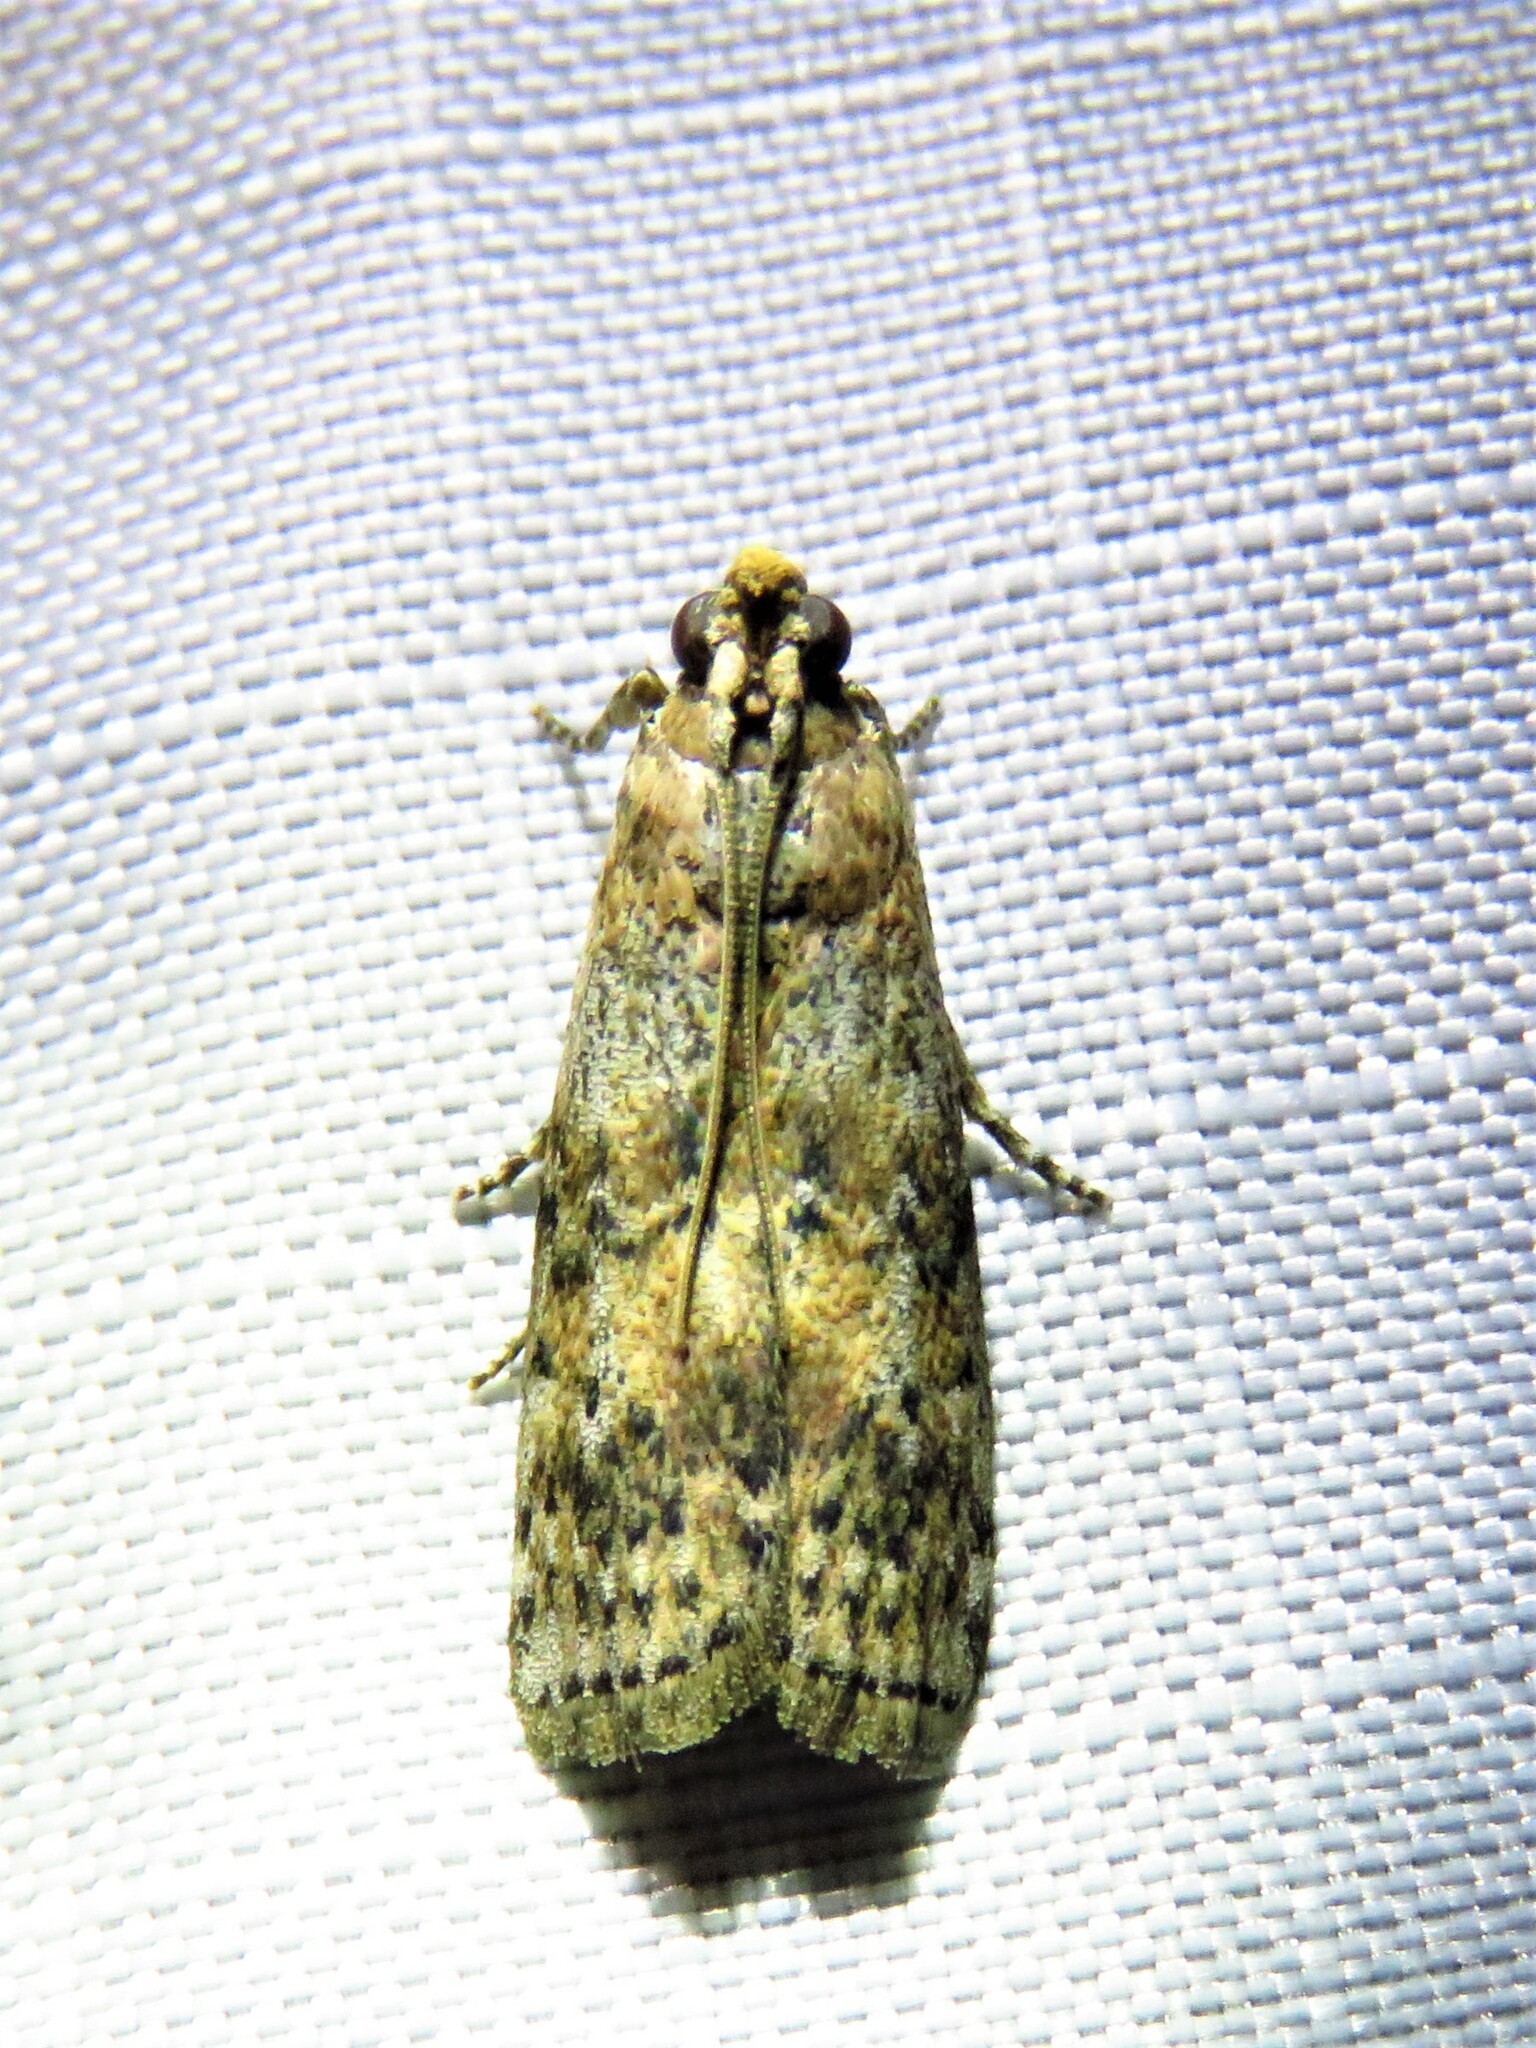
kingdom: Animalia
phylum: Arthropoda
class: Insecta
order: Lepidoptera
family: Pyralidae
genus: Sciota
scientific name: Sciota celtidella
